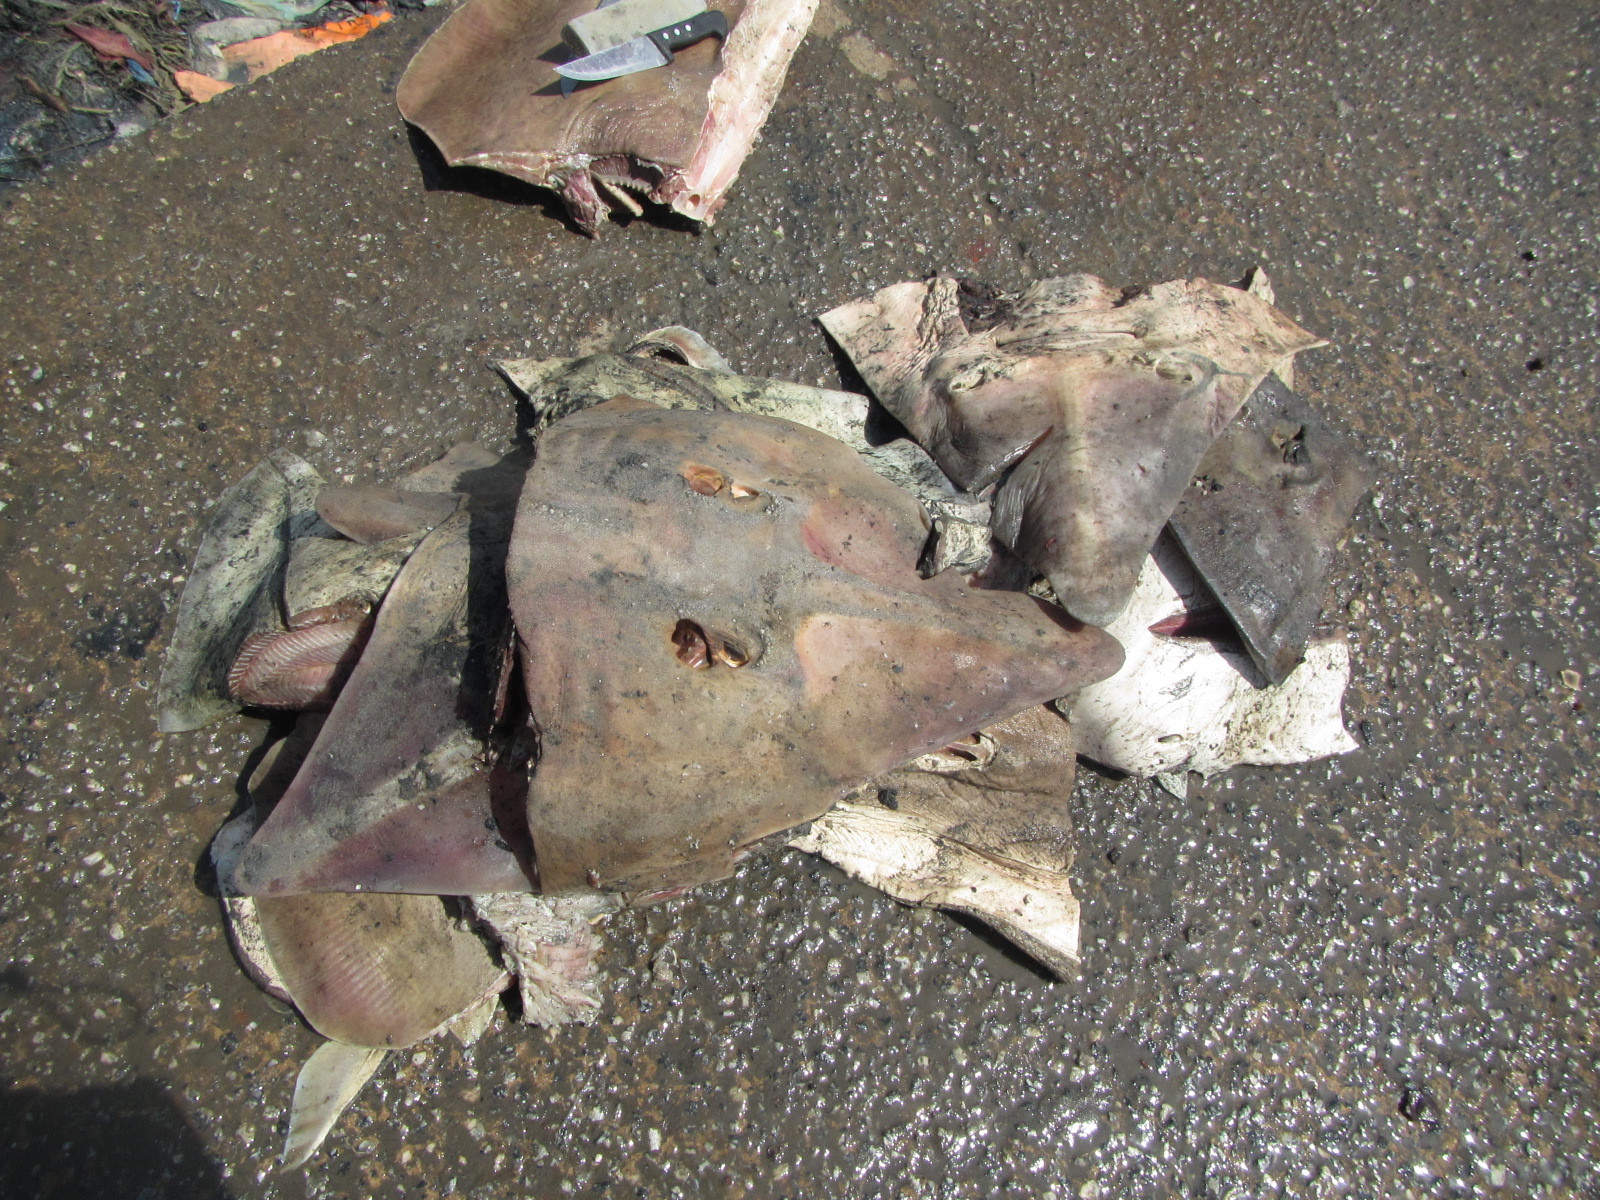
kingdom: Animalia
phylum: Chordata
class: Elasmobranchii
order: Rhinopristiformes
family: Glaucostegidae
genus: Glaucostegus
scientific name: Glaucostegus cemiculus
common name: Blackchin guitarfish
